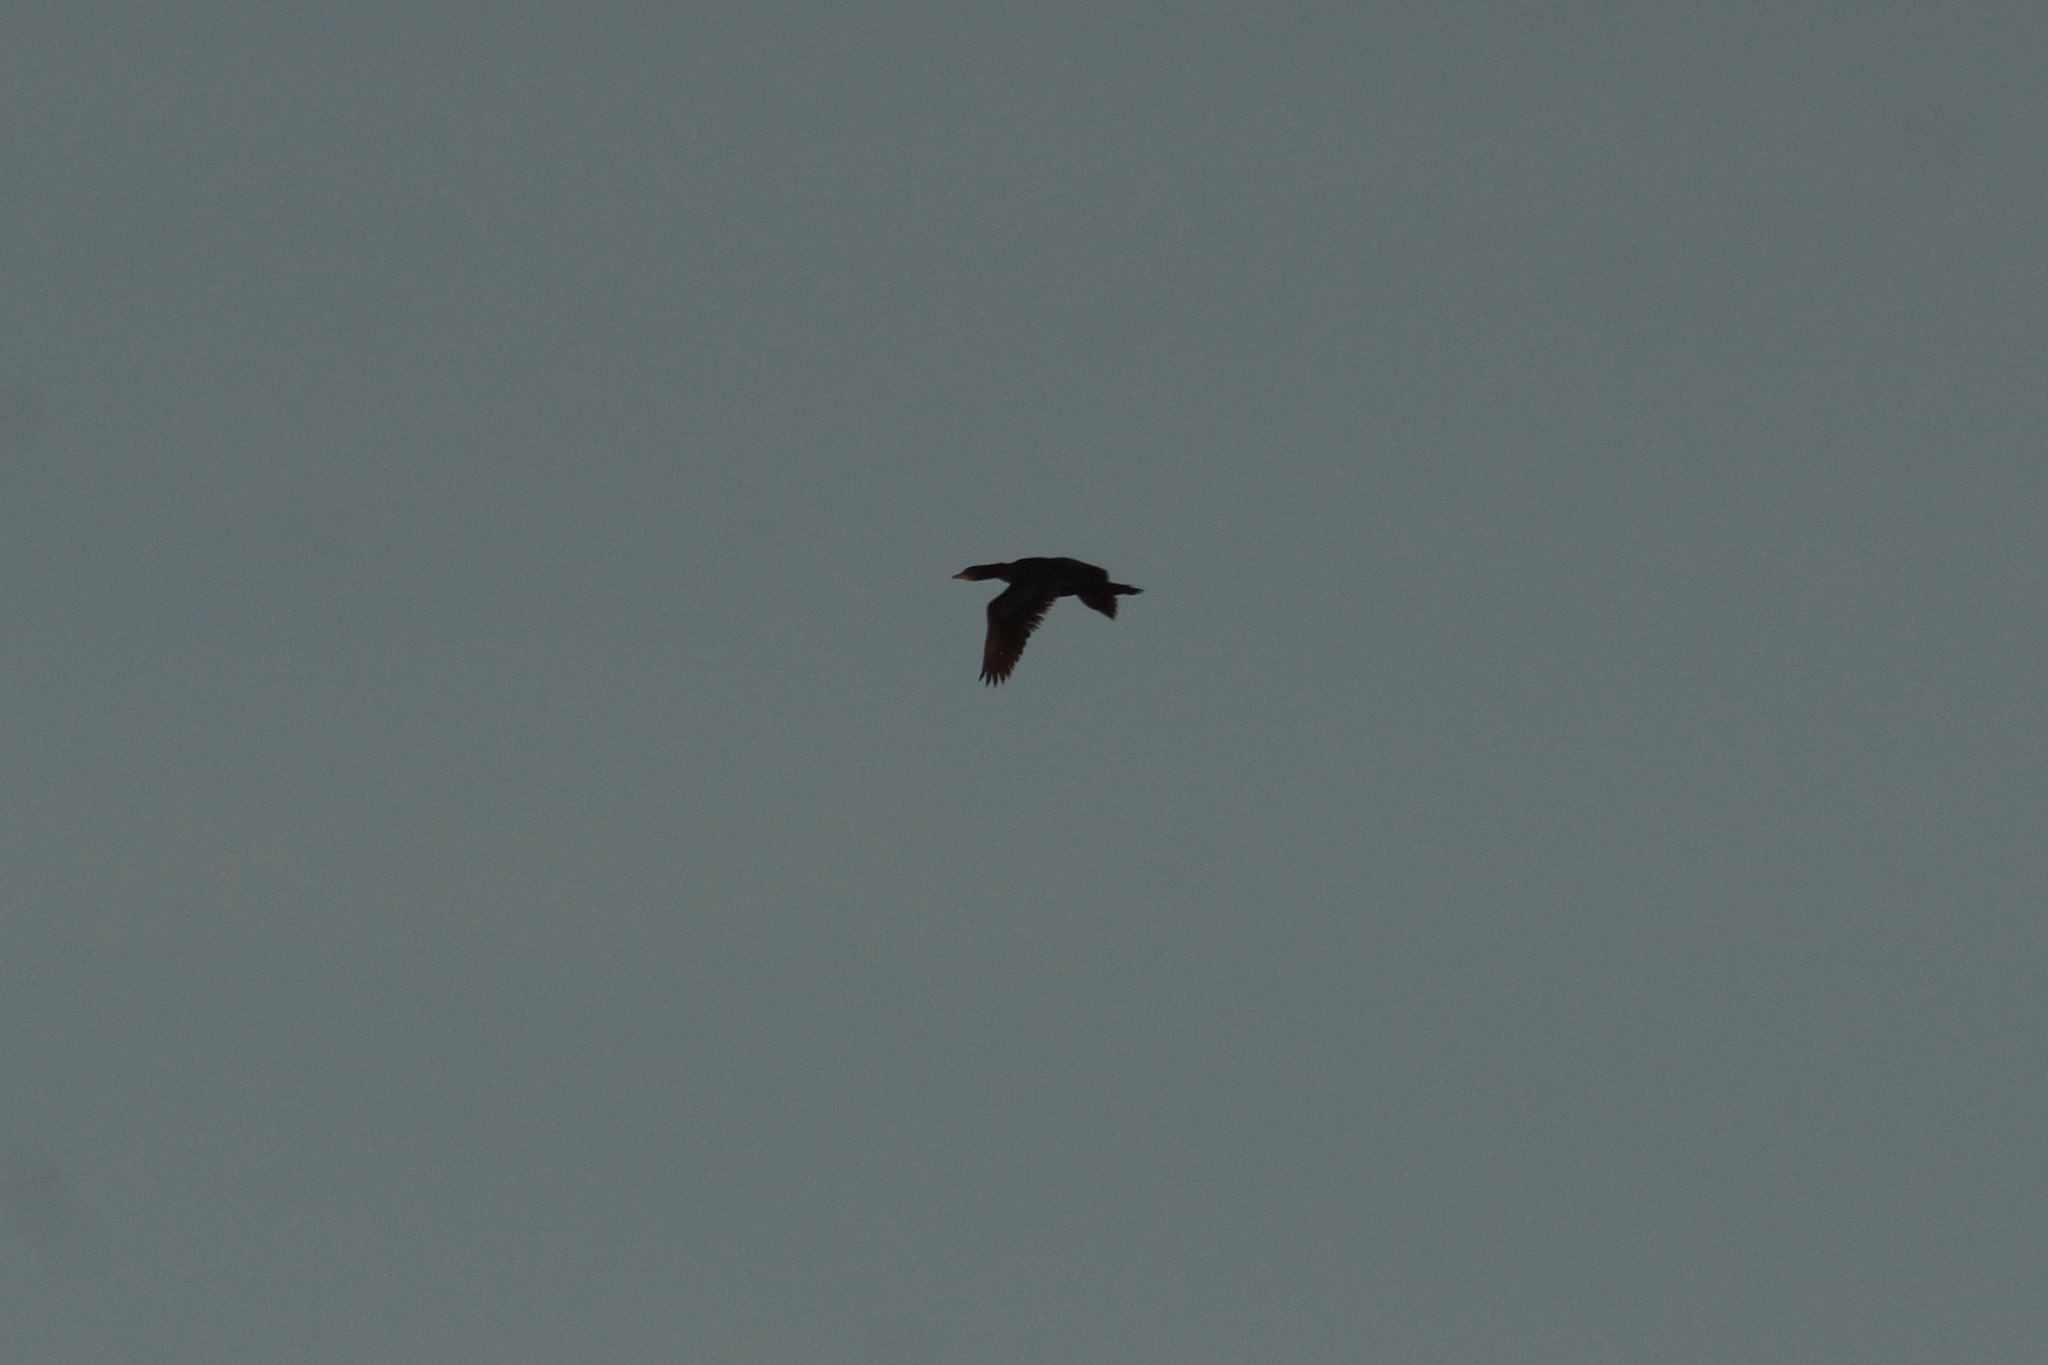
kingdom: Animalia
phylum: Chordata
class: Aves
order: Suliformes
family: Phalacrocoracidae
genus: Microcarbo
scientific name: Microcarbo pygmaeus
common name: Pygmy cormorant
